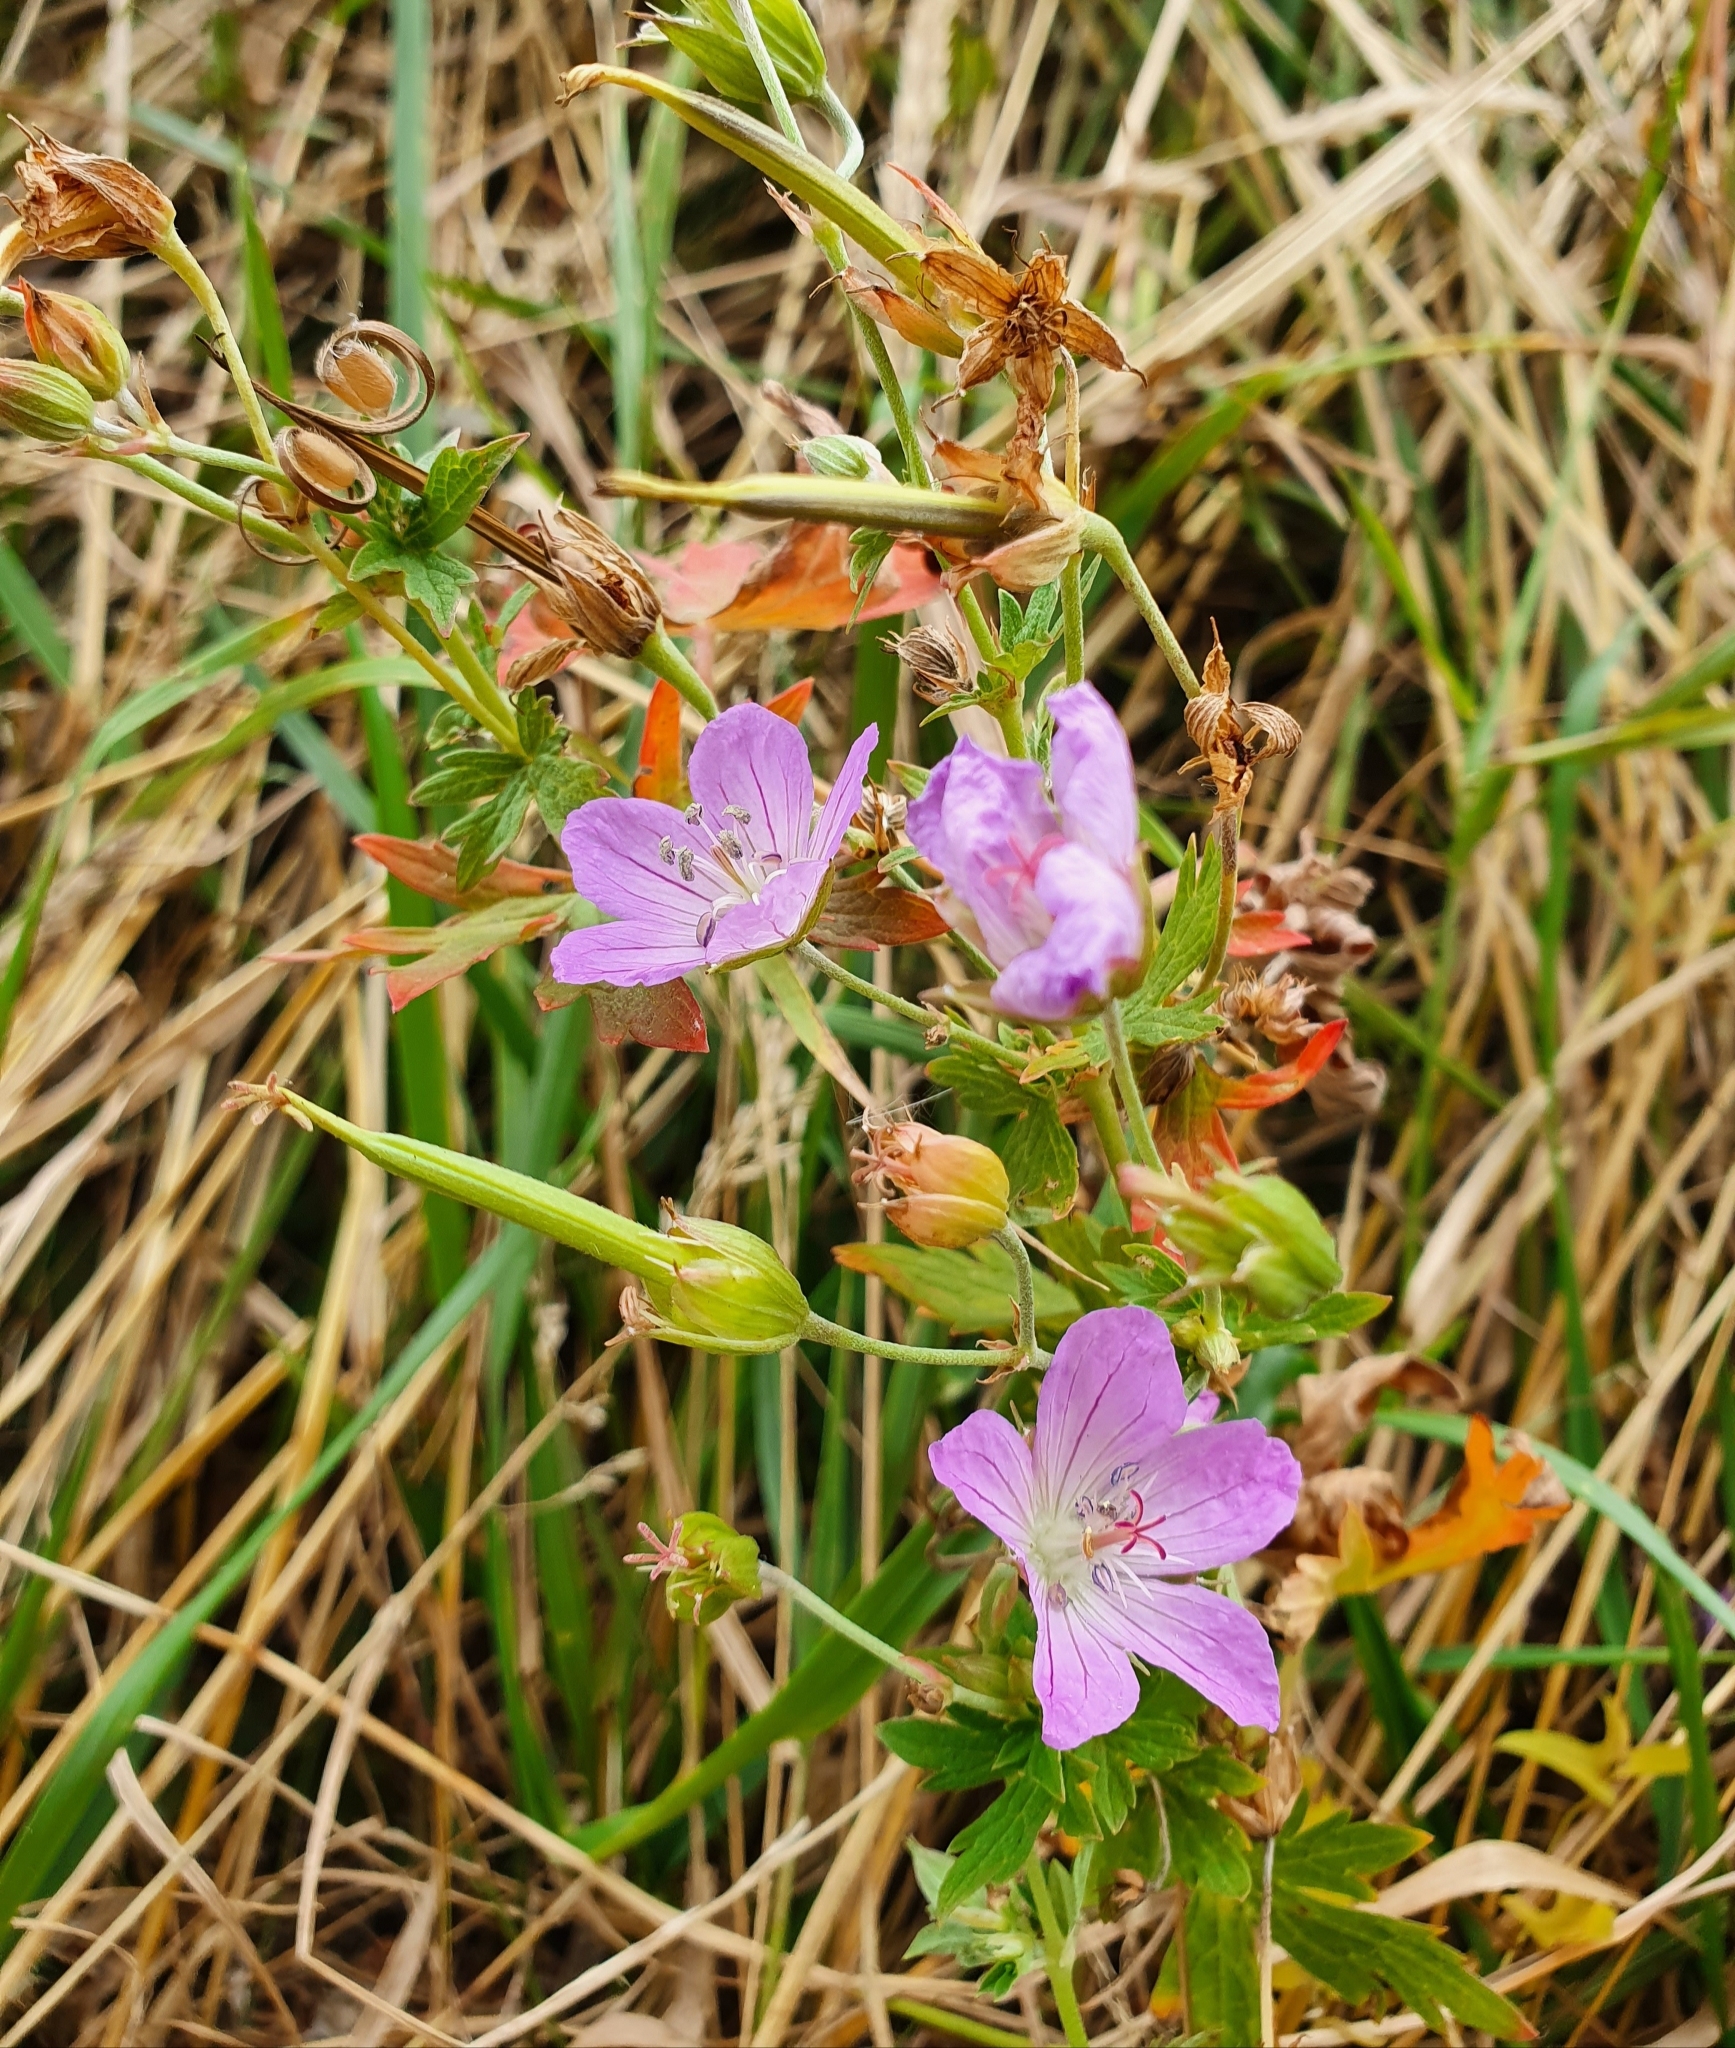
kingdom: Plantae
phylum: Tracheophyta
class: Magnoliopsida
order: Geraniales
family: Geraniaceae
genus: Geranium
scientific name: Geranium pratense
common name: Meadow crane's-bill
